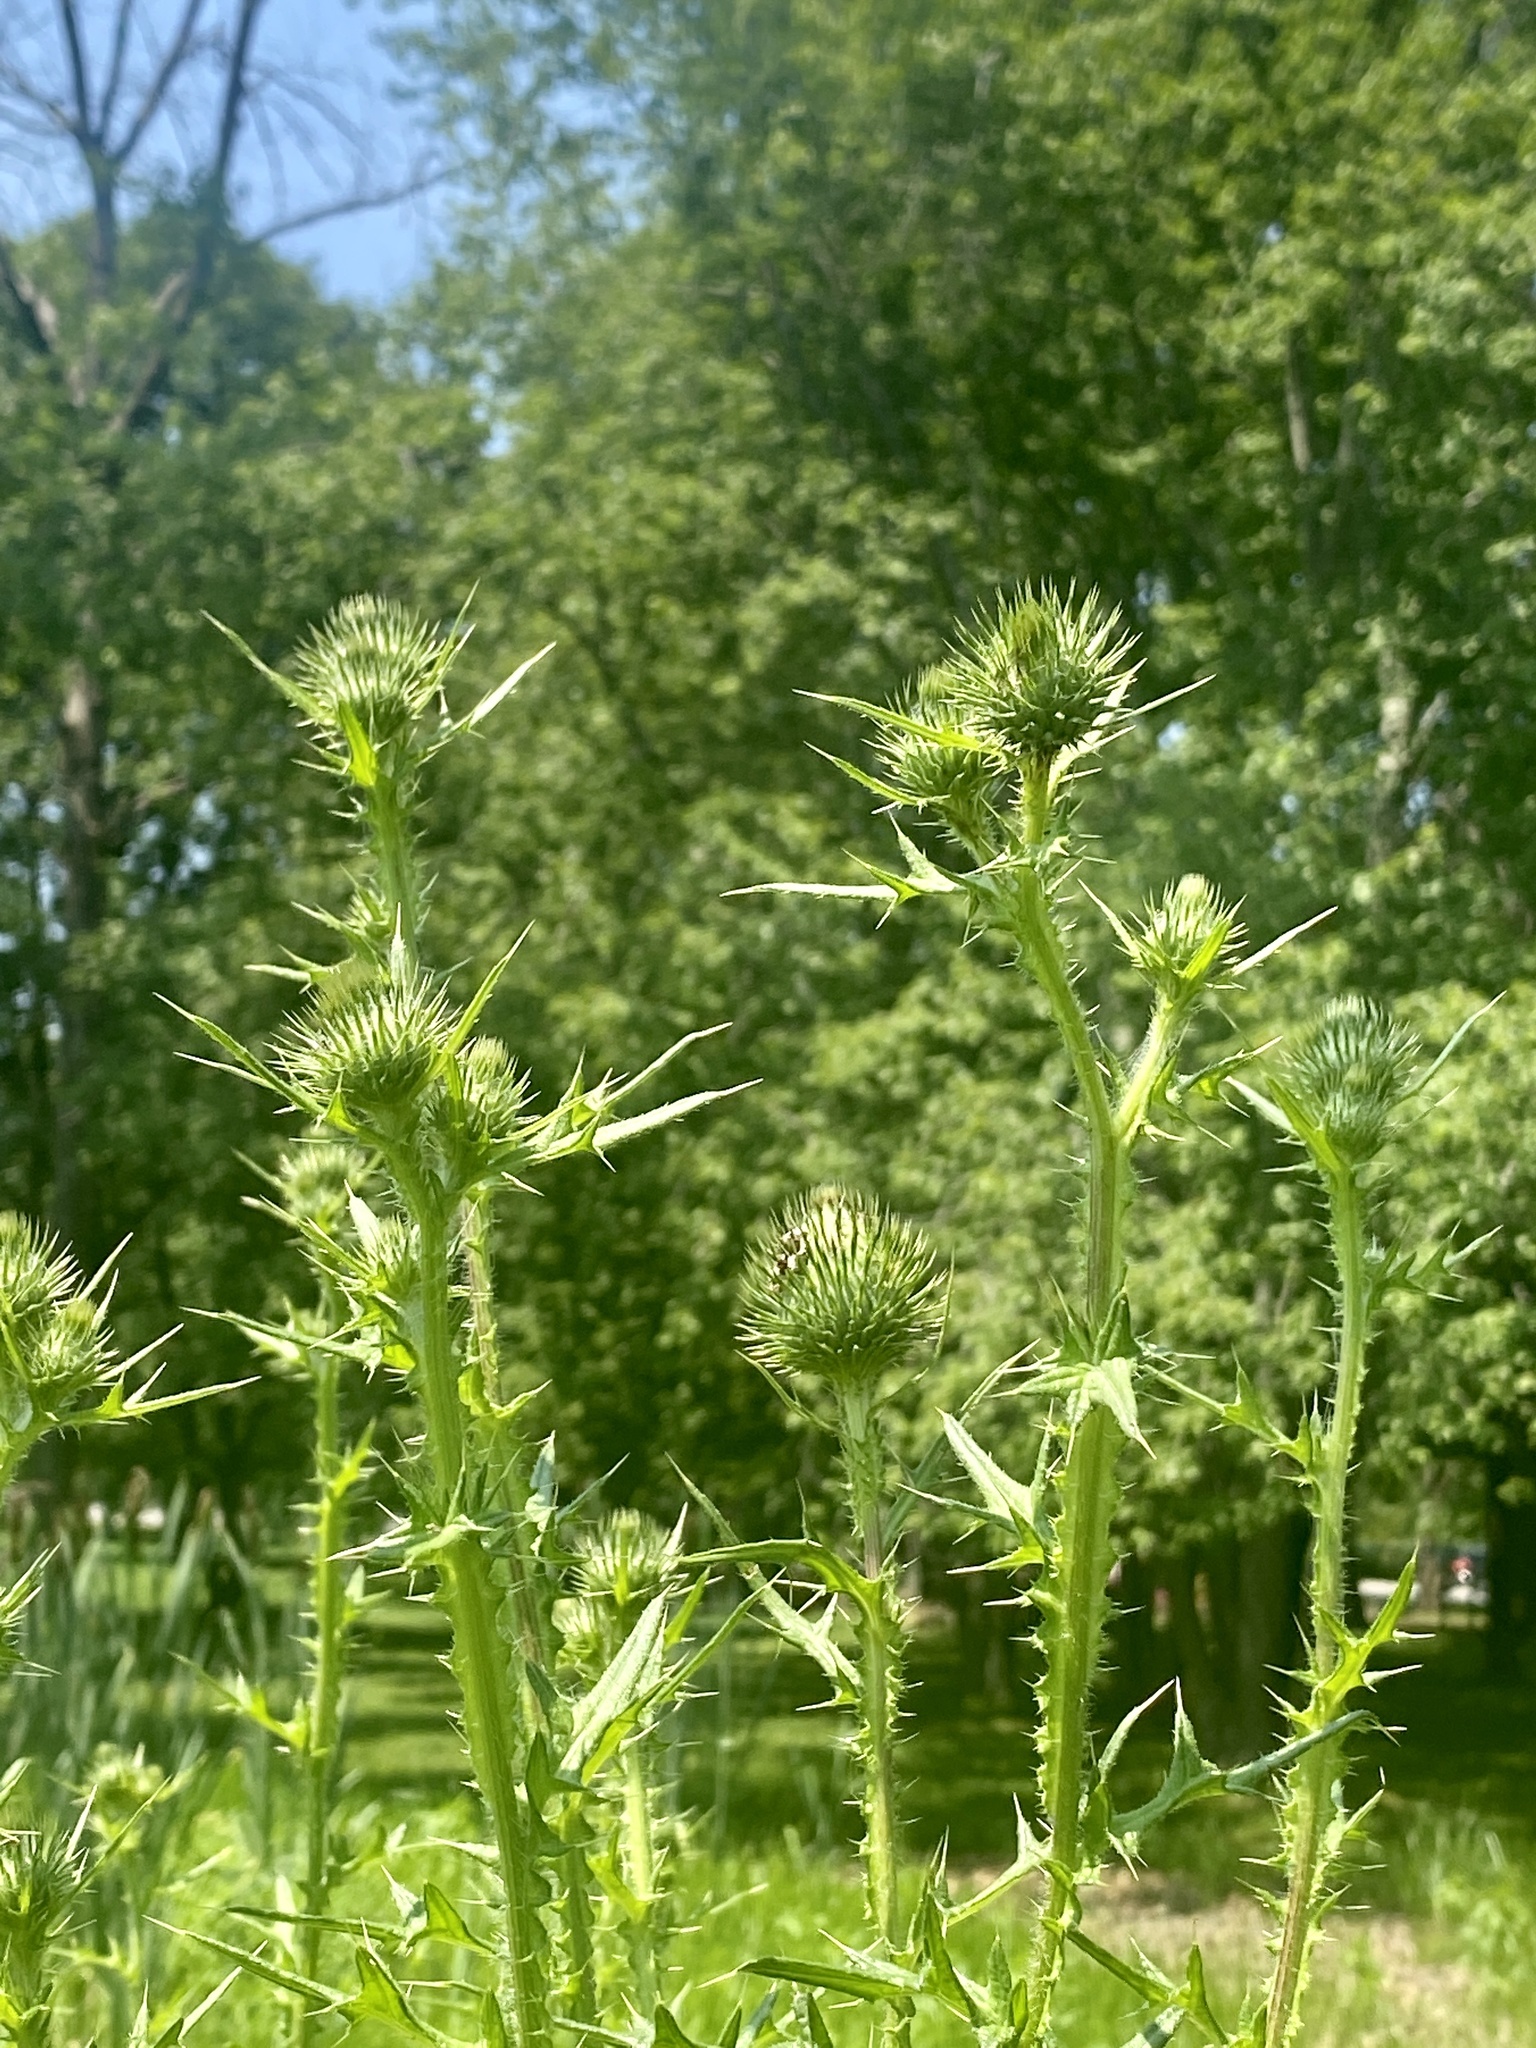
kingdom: Plantae
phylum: Tracheophyta
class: Magnoliopsida
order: Asterales
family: Asteraceae
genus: Cirsium
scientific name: Cirsium vulgare
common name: Bull thistle
